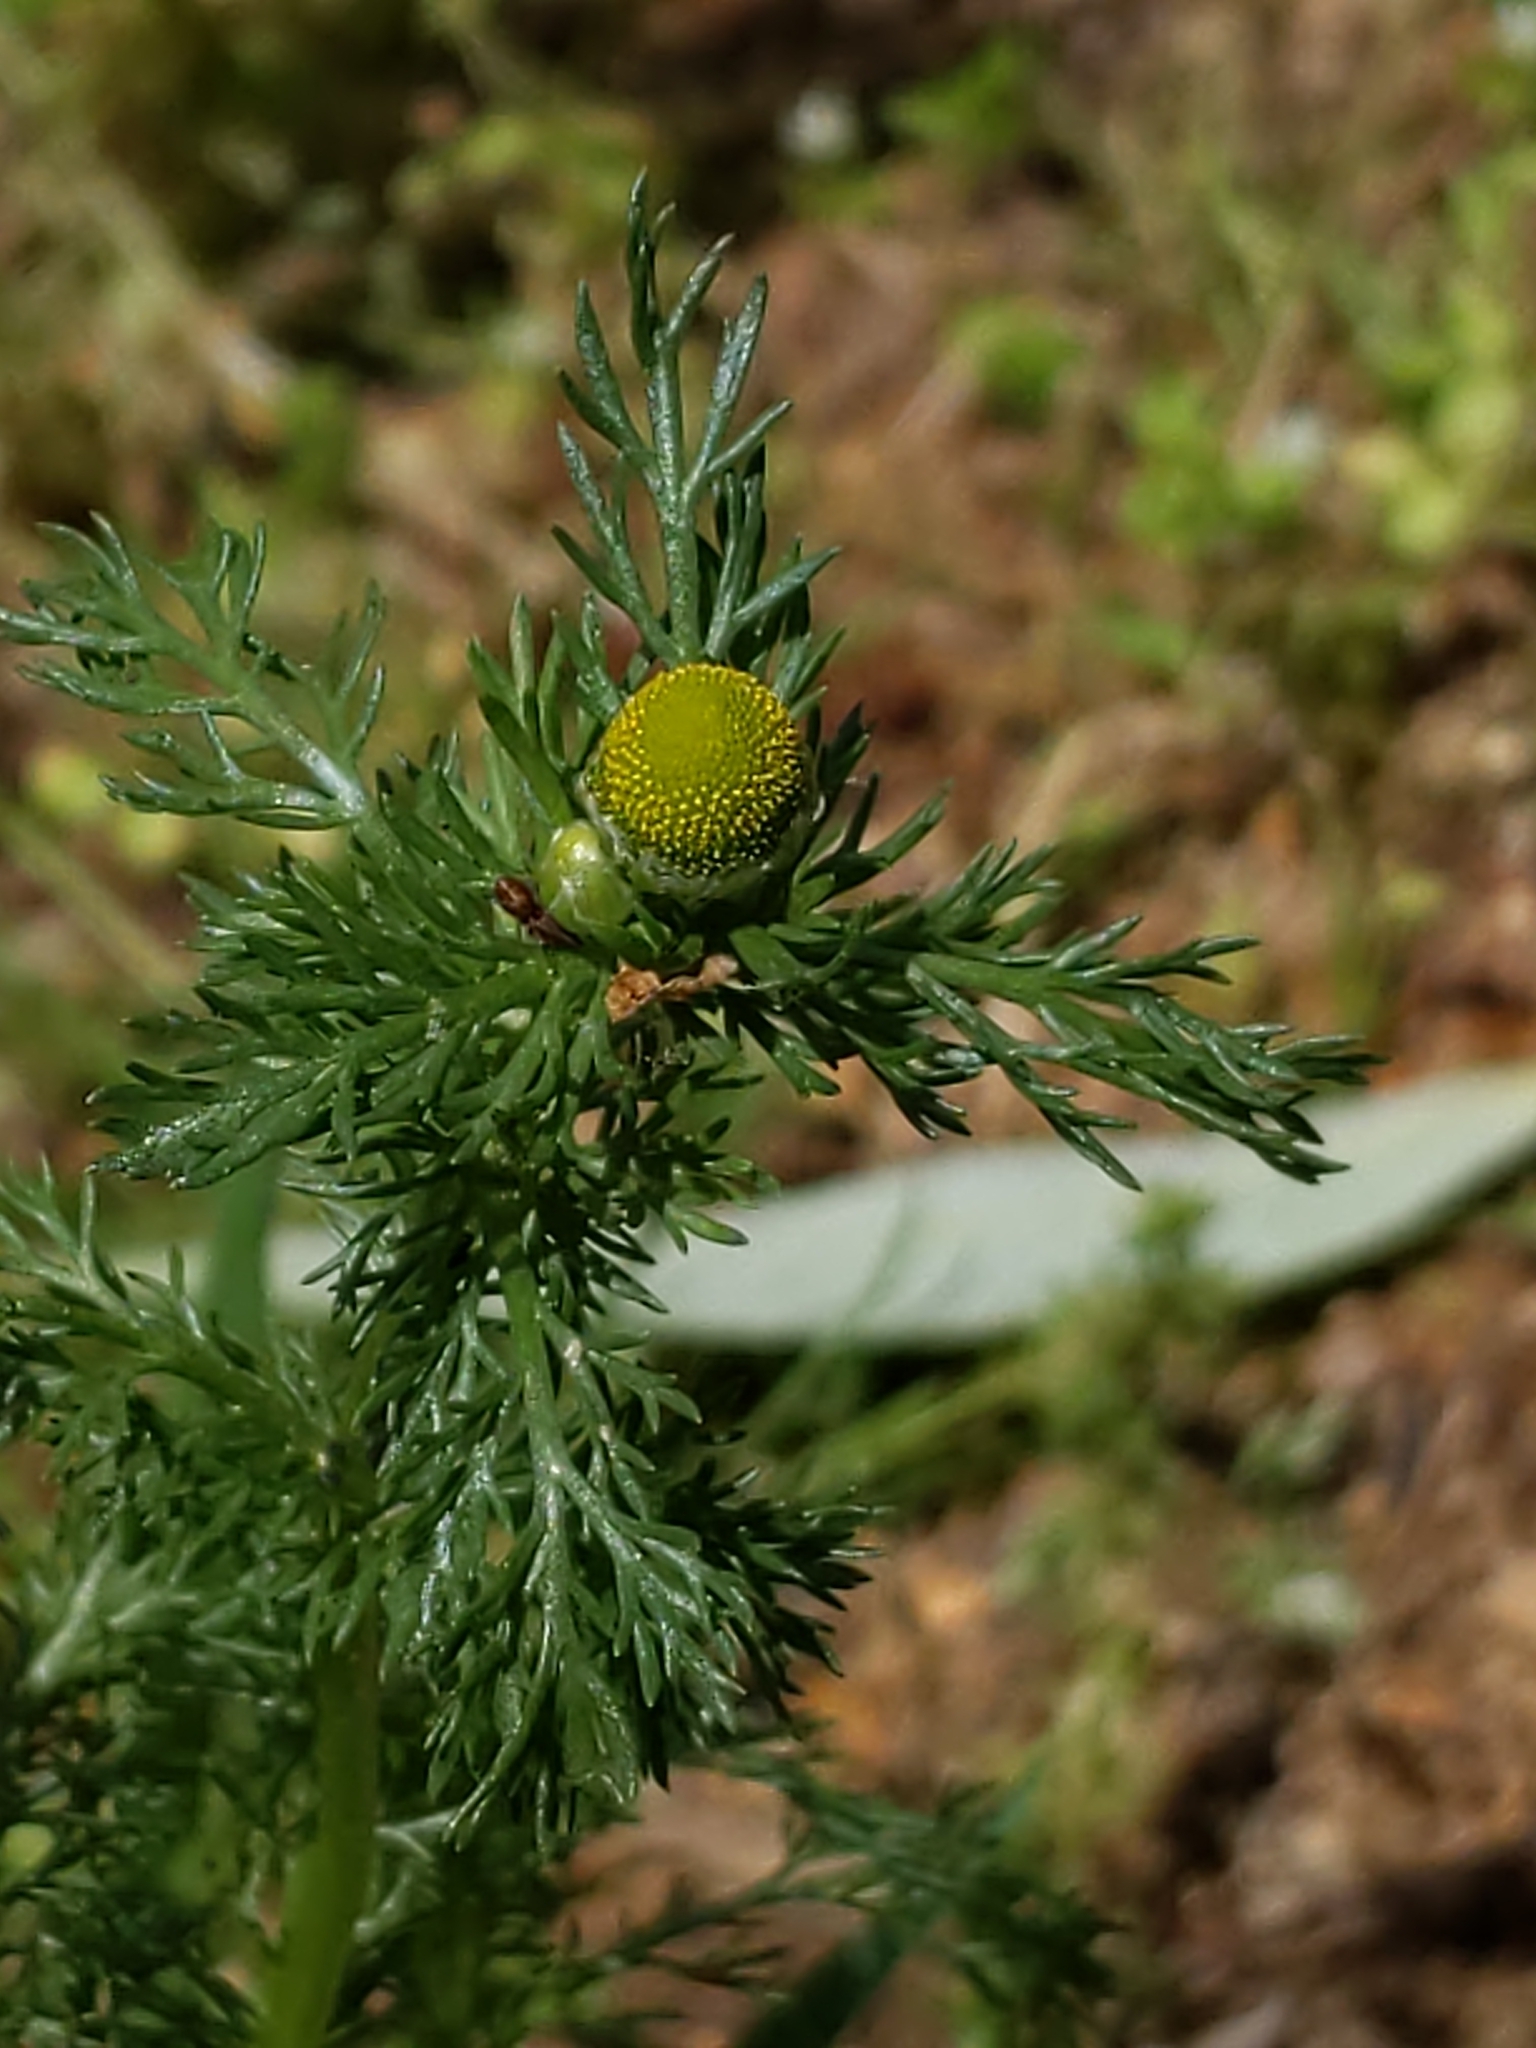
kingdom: Plantae
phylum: Tracheophyta
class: Magnoliopsida
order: Asterales
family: Asteraceae
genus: Matricaria
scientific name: Matricaria discoidea
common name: Disc mayweed
